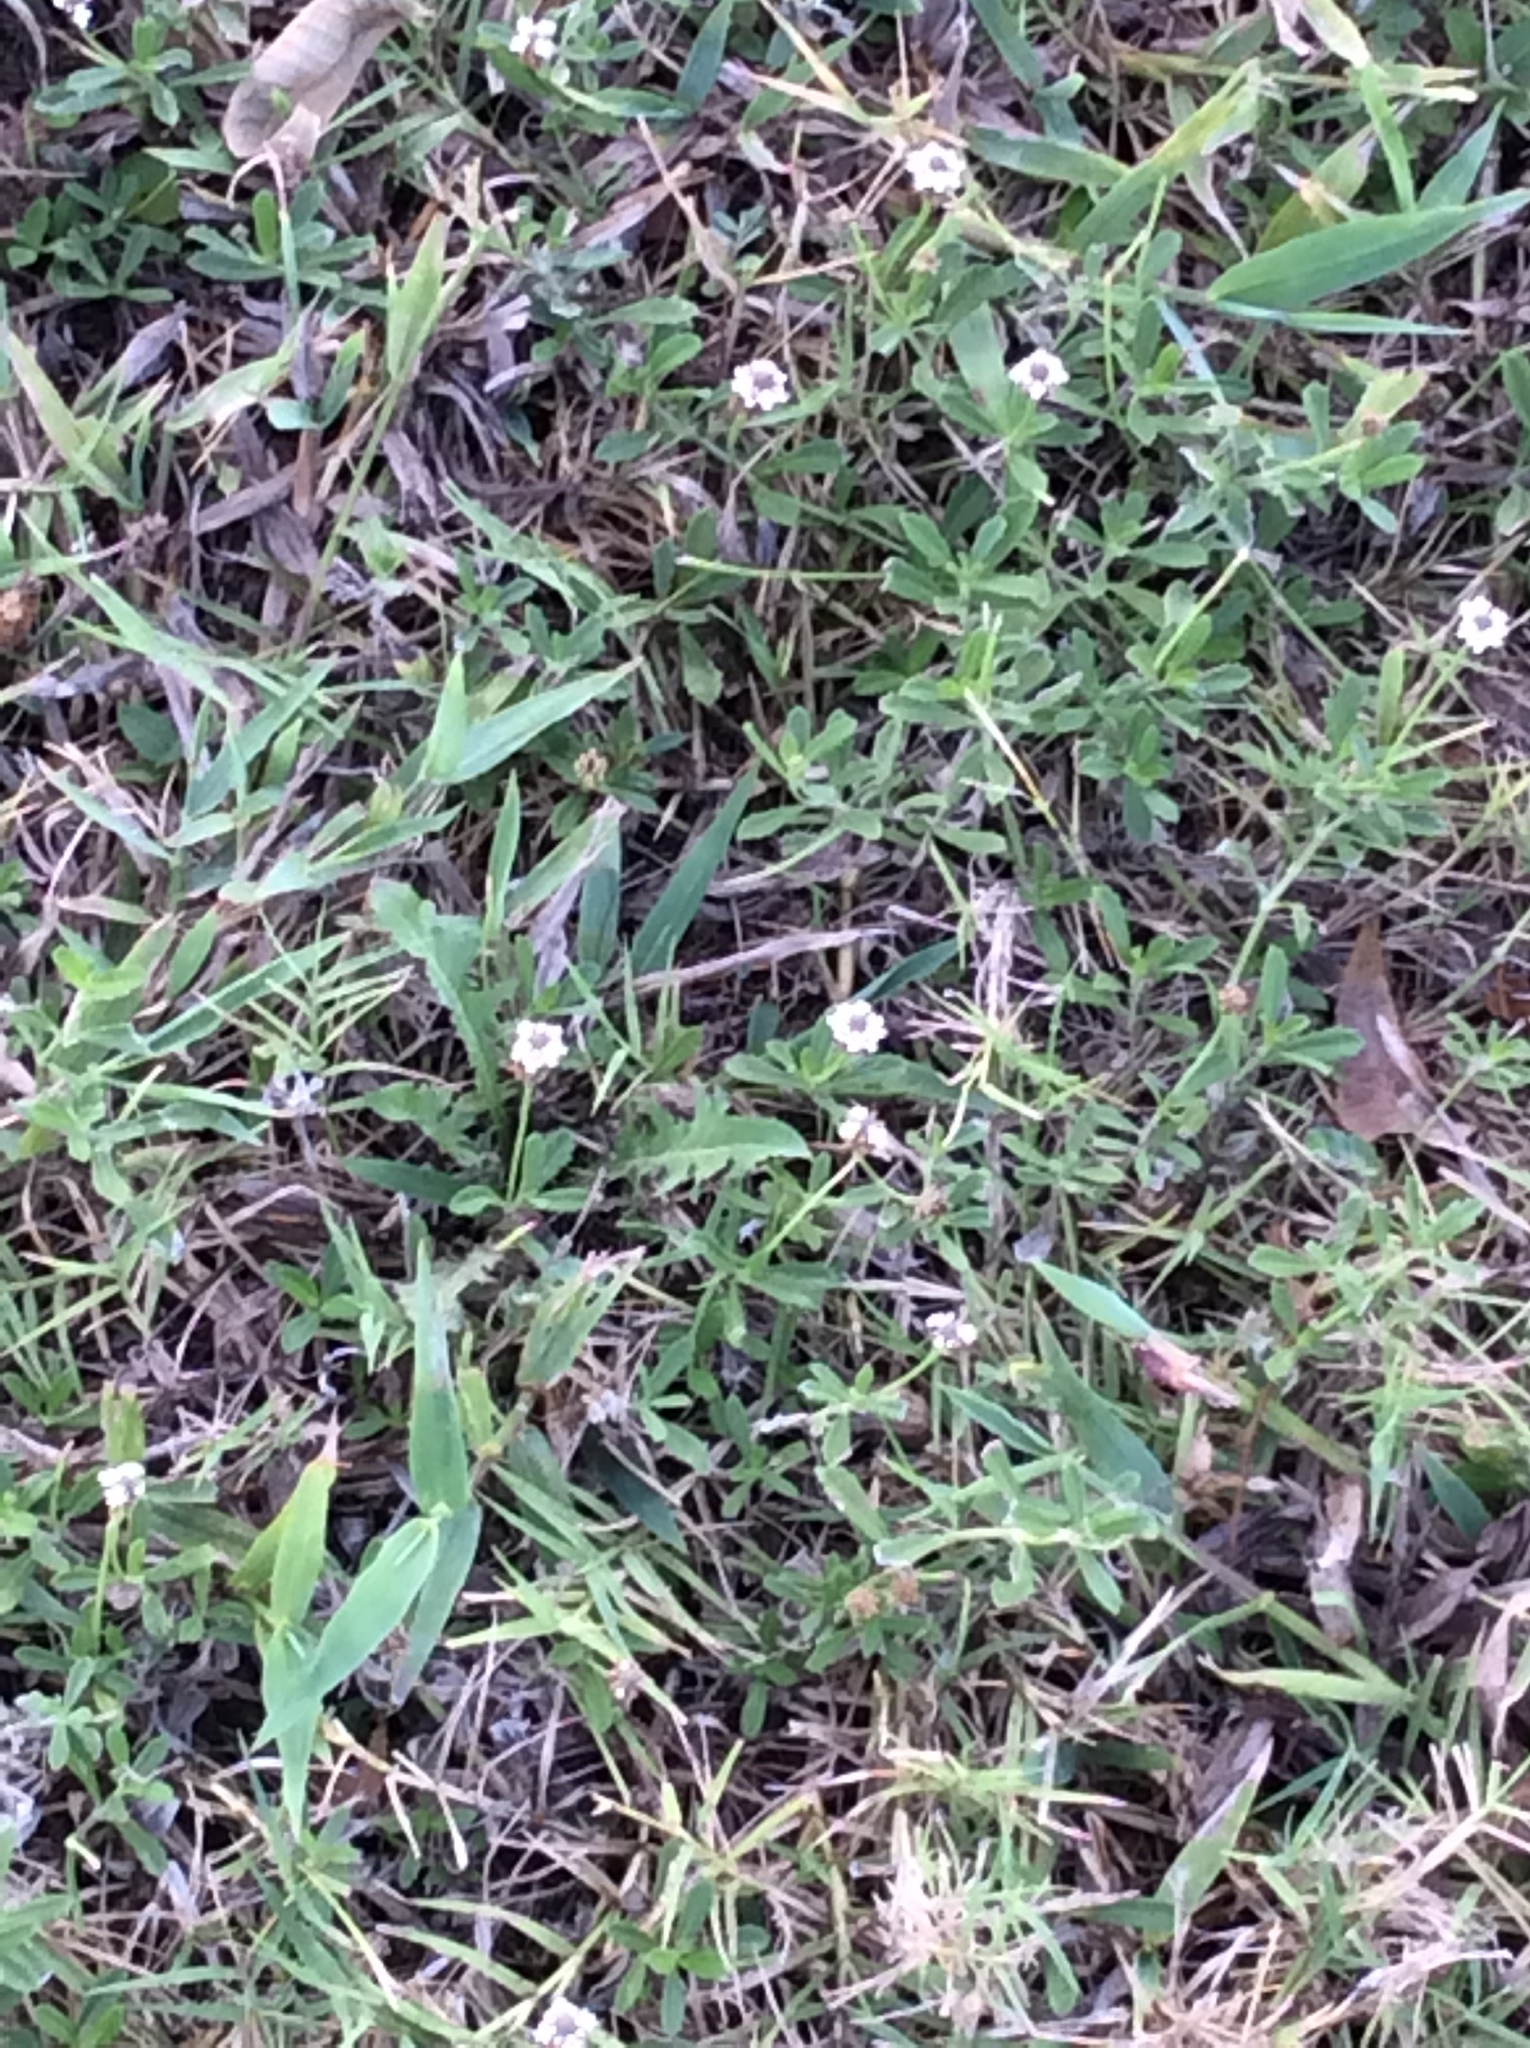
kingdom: Plantae
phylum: Tracheophyta
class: Magnoliopsida
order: Lamiales
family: Verbenaceae
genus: Phyla
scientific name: Phyla nodiflora
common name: Frogfruit
